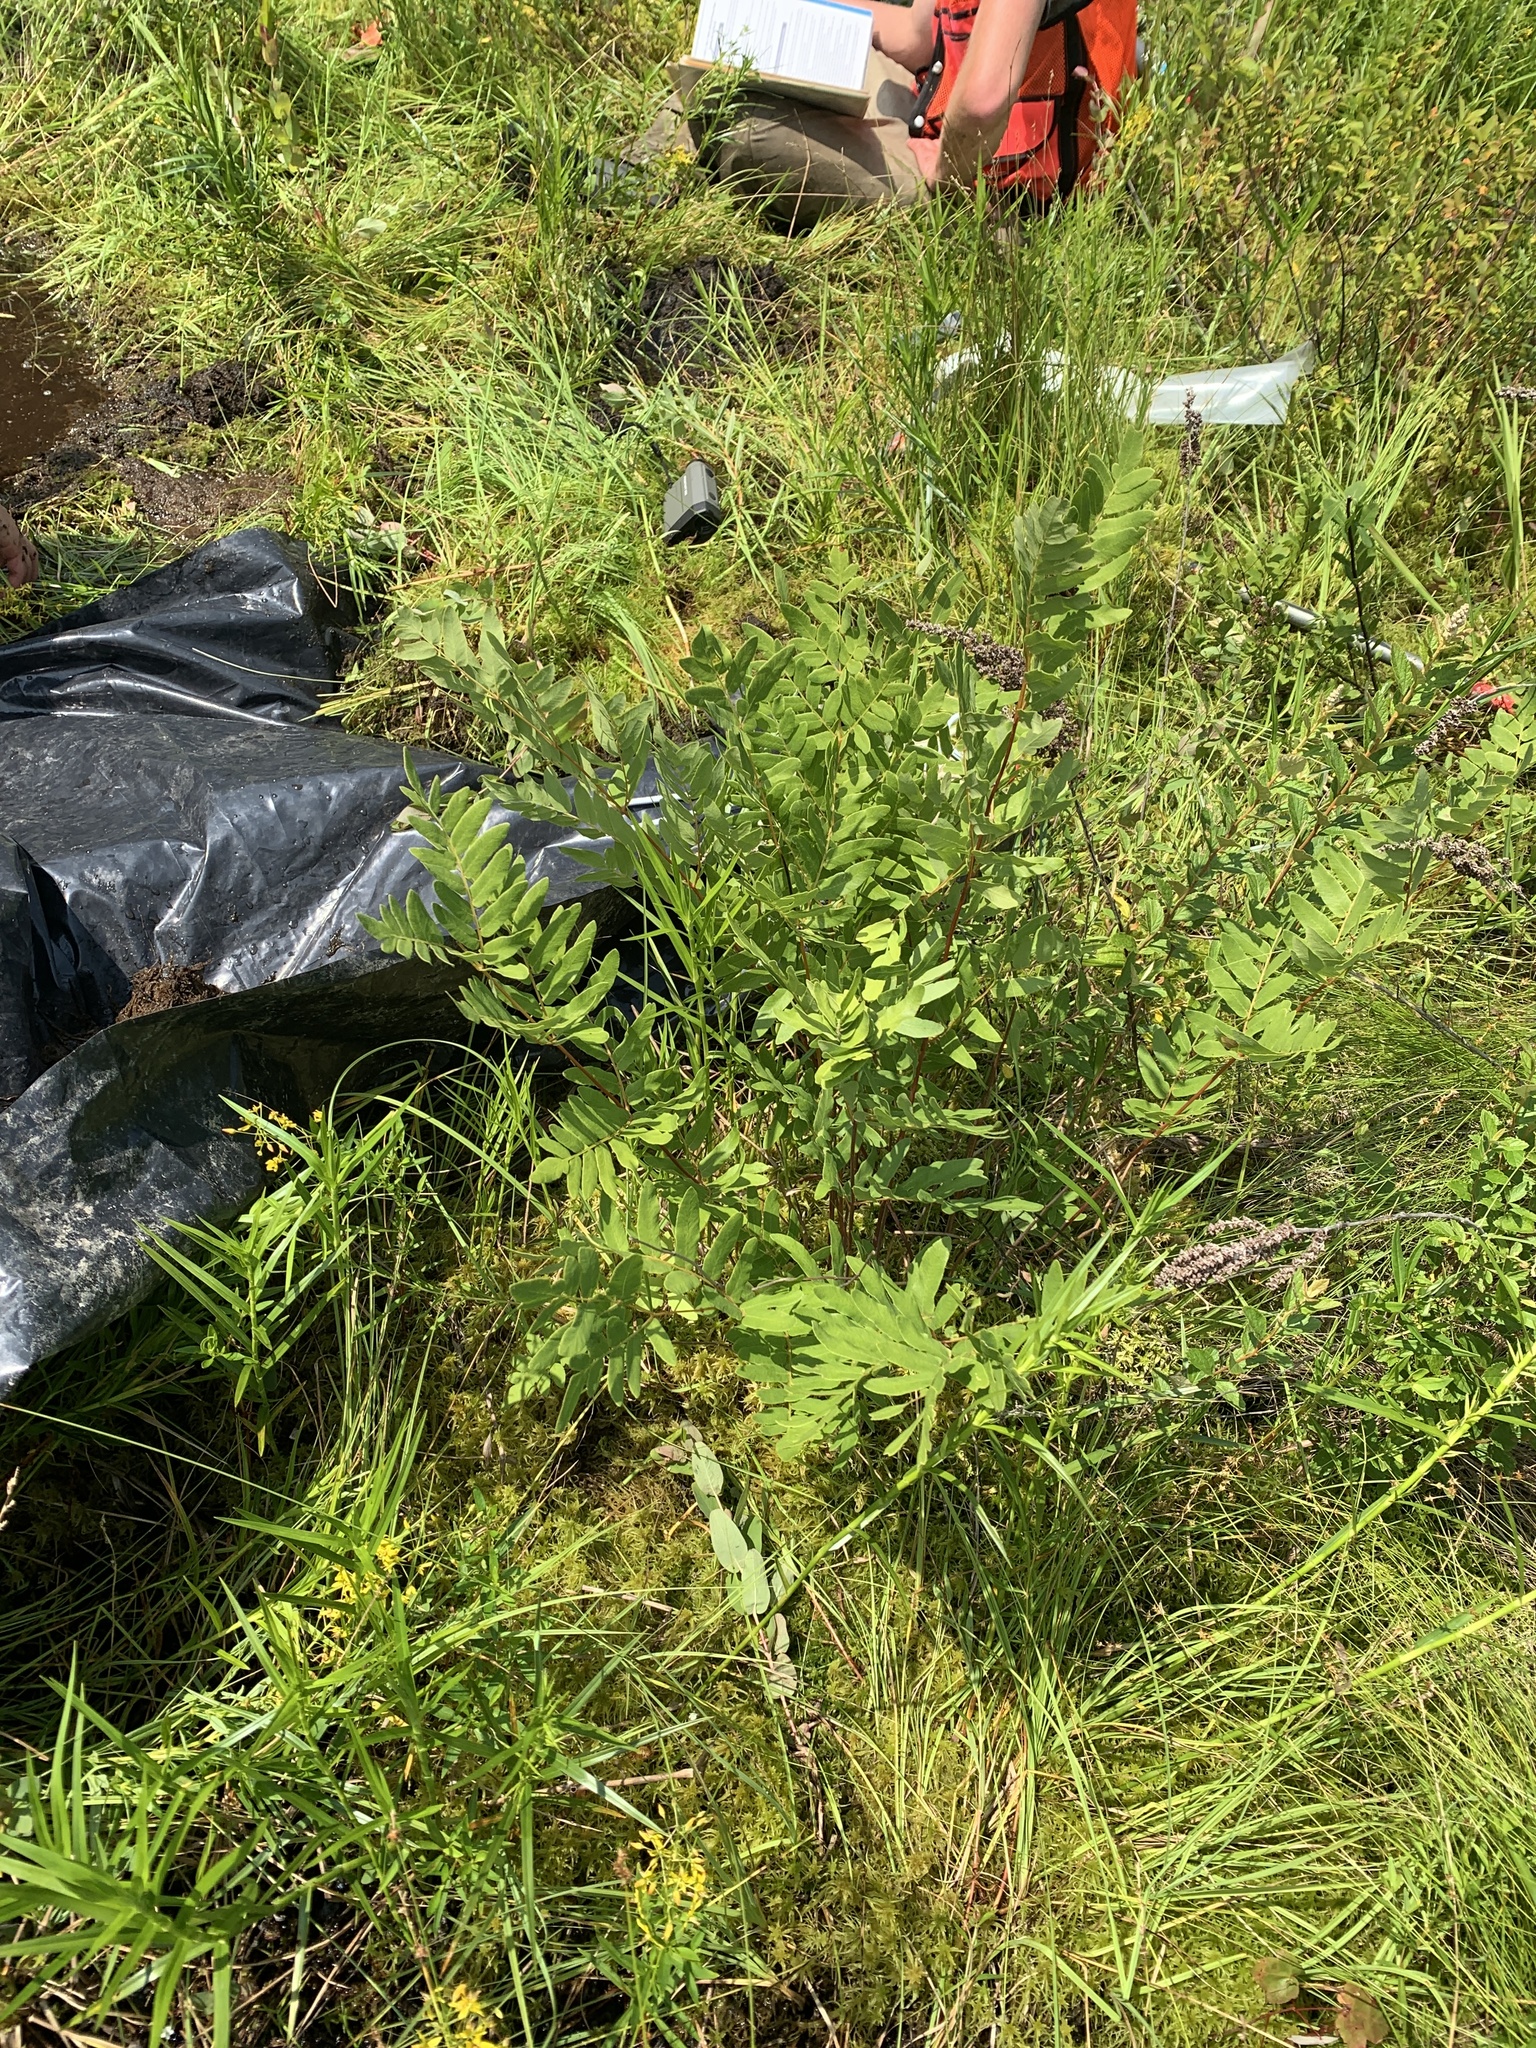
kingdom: Plantae
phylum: Tracheophyta
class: Polypodiopsida
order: Osmundales
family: Osmundaceae
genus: Osmunda
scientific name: Osmunda spectabilis
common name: American royal fern
